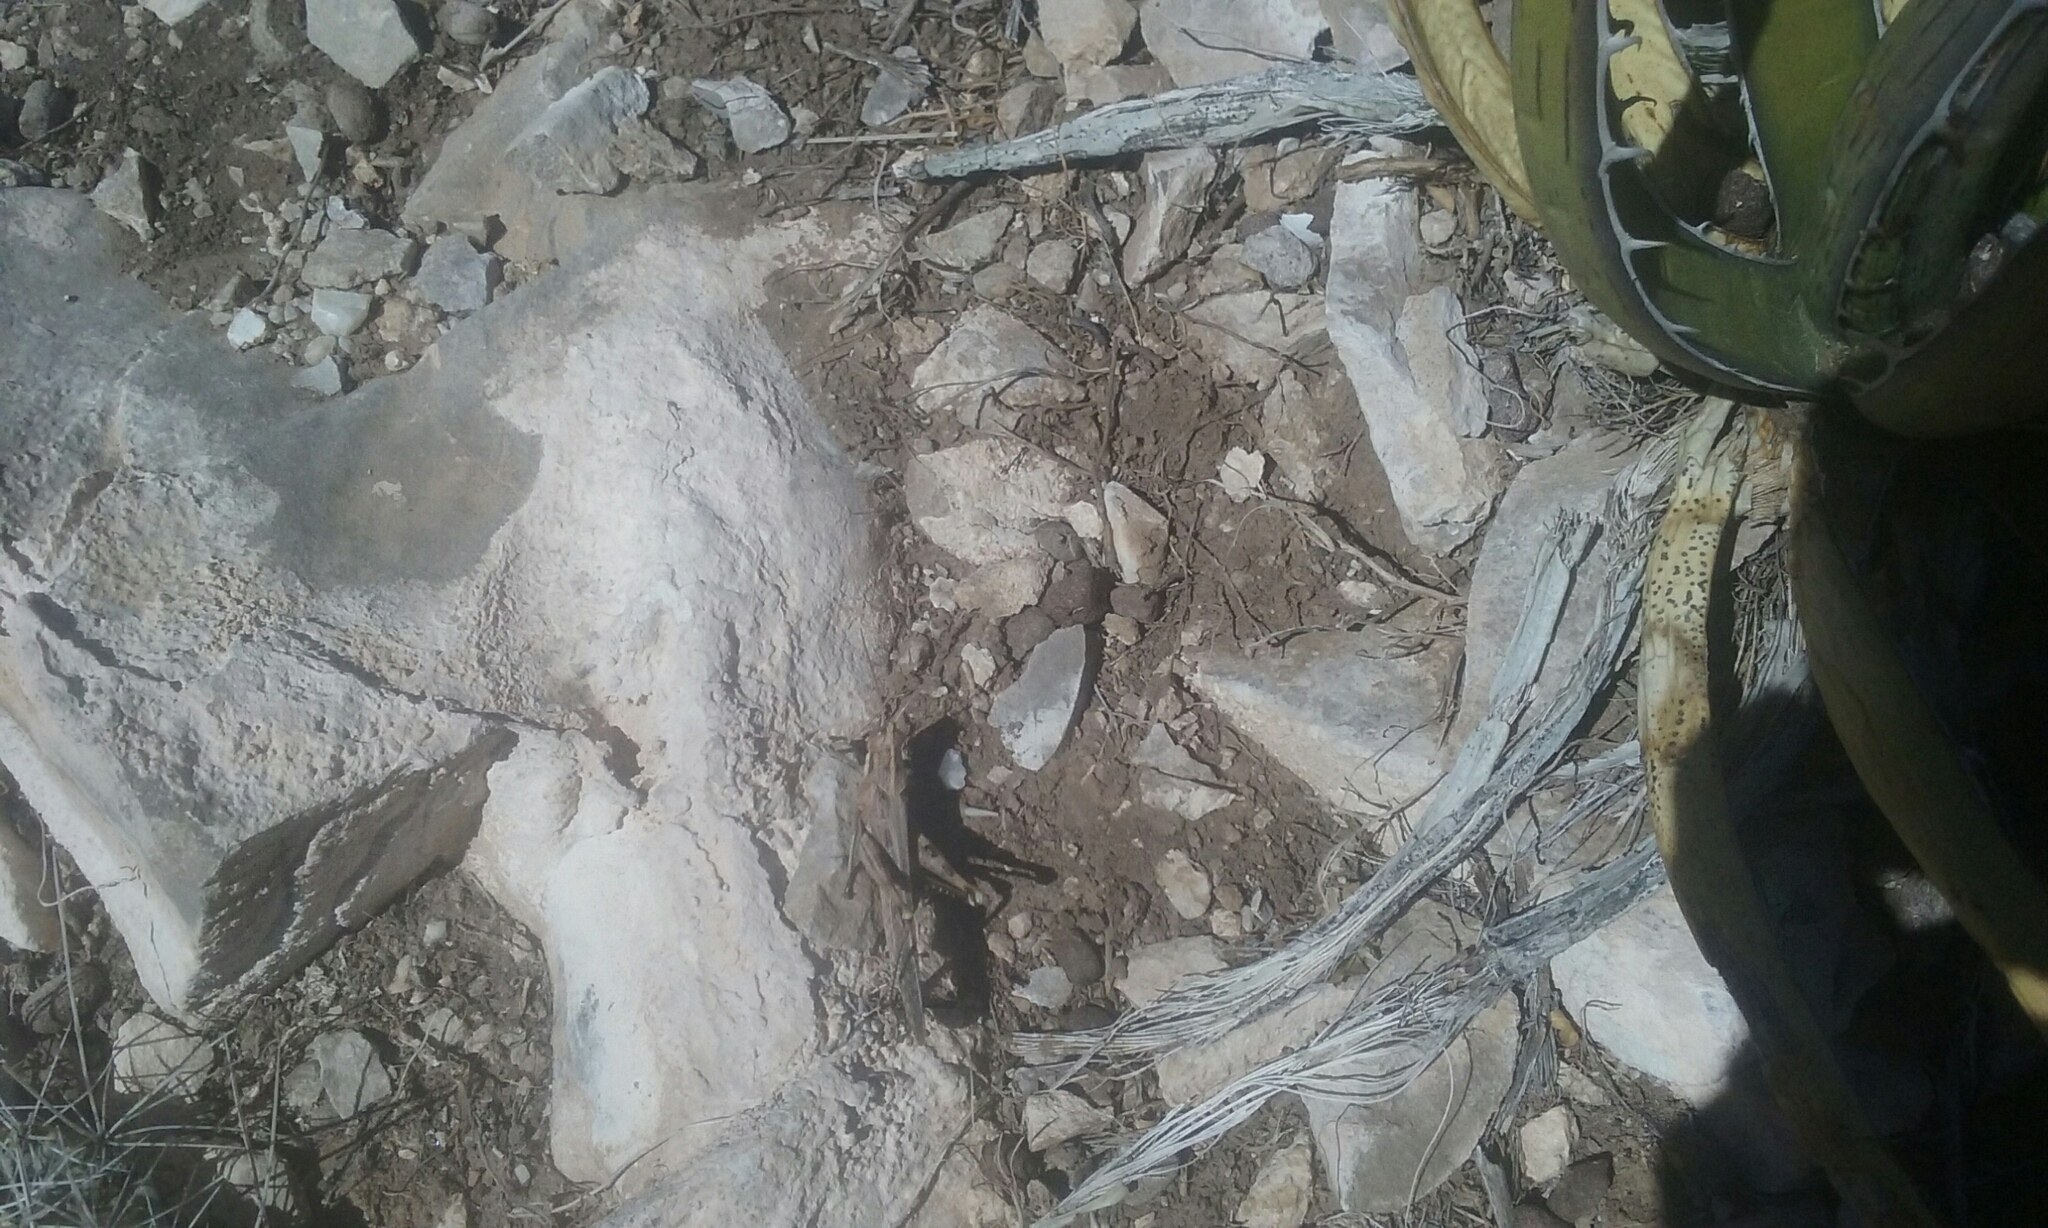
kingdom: Animalia
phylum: Arthropoda
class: Insecta
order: Orthoptera
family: Acrididae
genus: Schistocerca
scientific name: Schistocerca nitens
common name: Vagrant grasshopper
